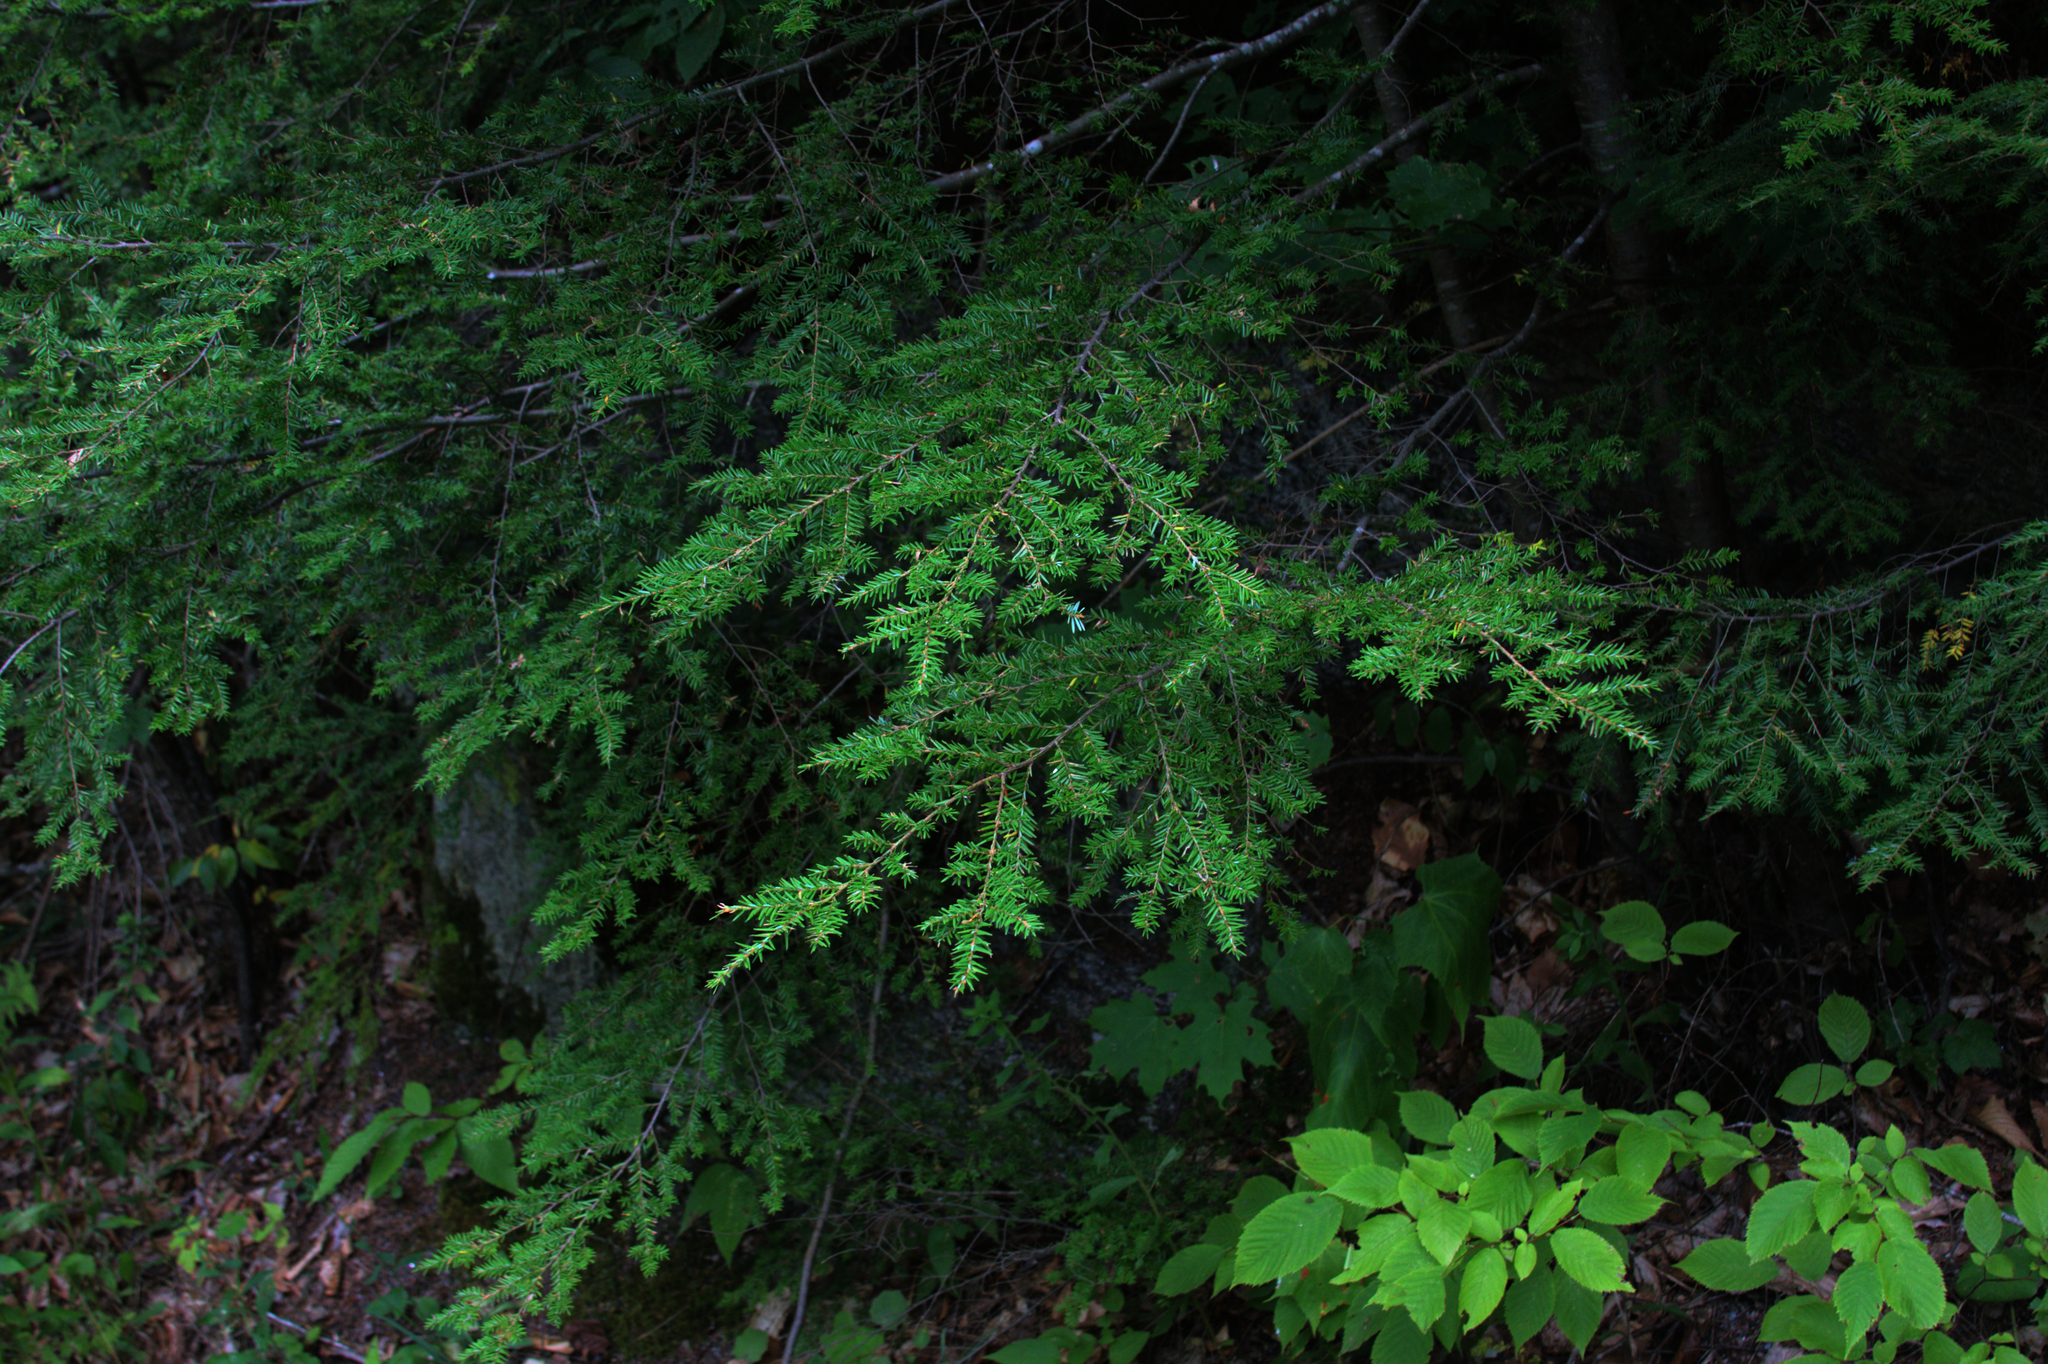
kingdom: Plantae
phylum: Tracheophyta
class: Pinopsida
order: Pinales
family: Pinaceae
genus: Tsuga
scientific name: Tsuga canadensis
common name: Eastern hemlock
